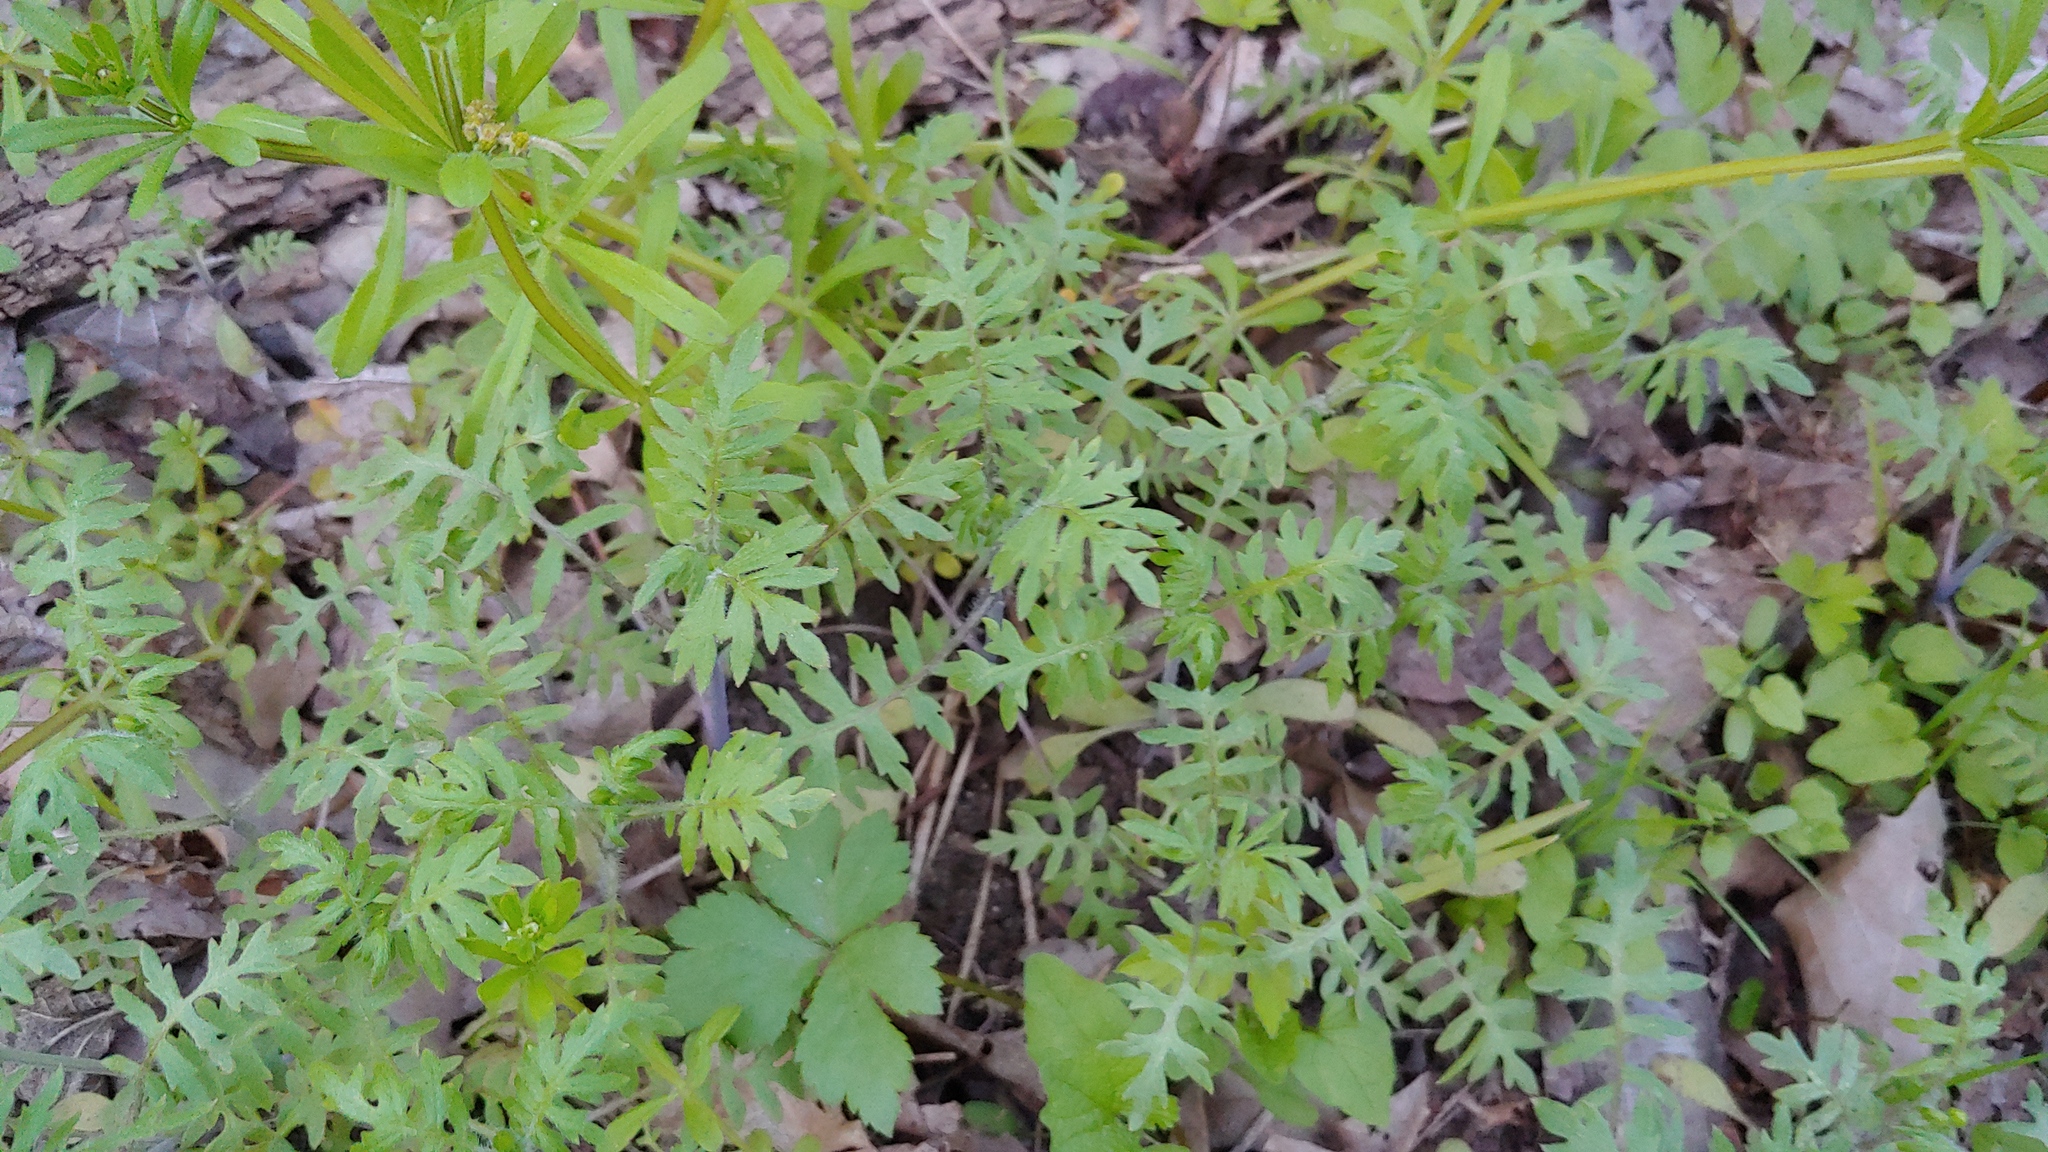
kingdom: Plantae
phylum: Tracheophyta
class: Magnoliopsida
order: Boraginales
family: Hydrophyllaceae
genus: Ellisia
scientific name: Ellisia nyctelea
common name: Aunt lucy
